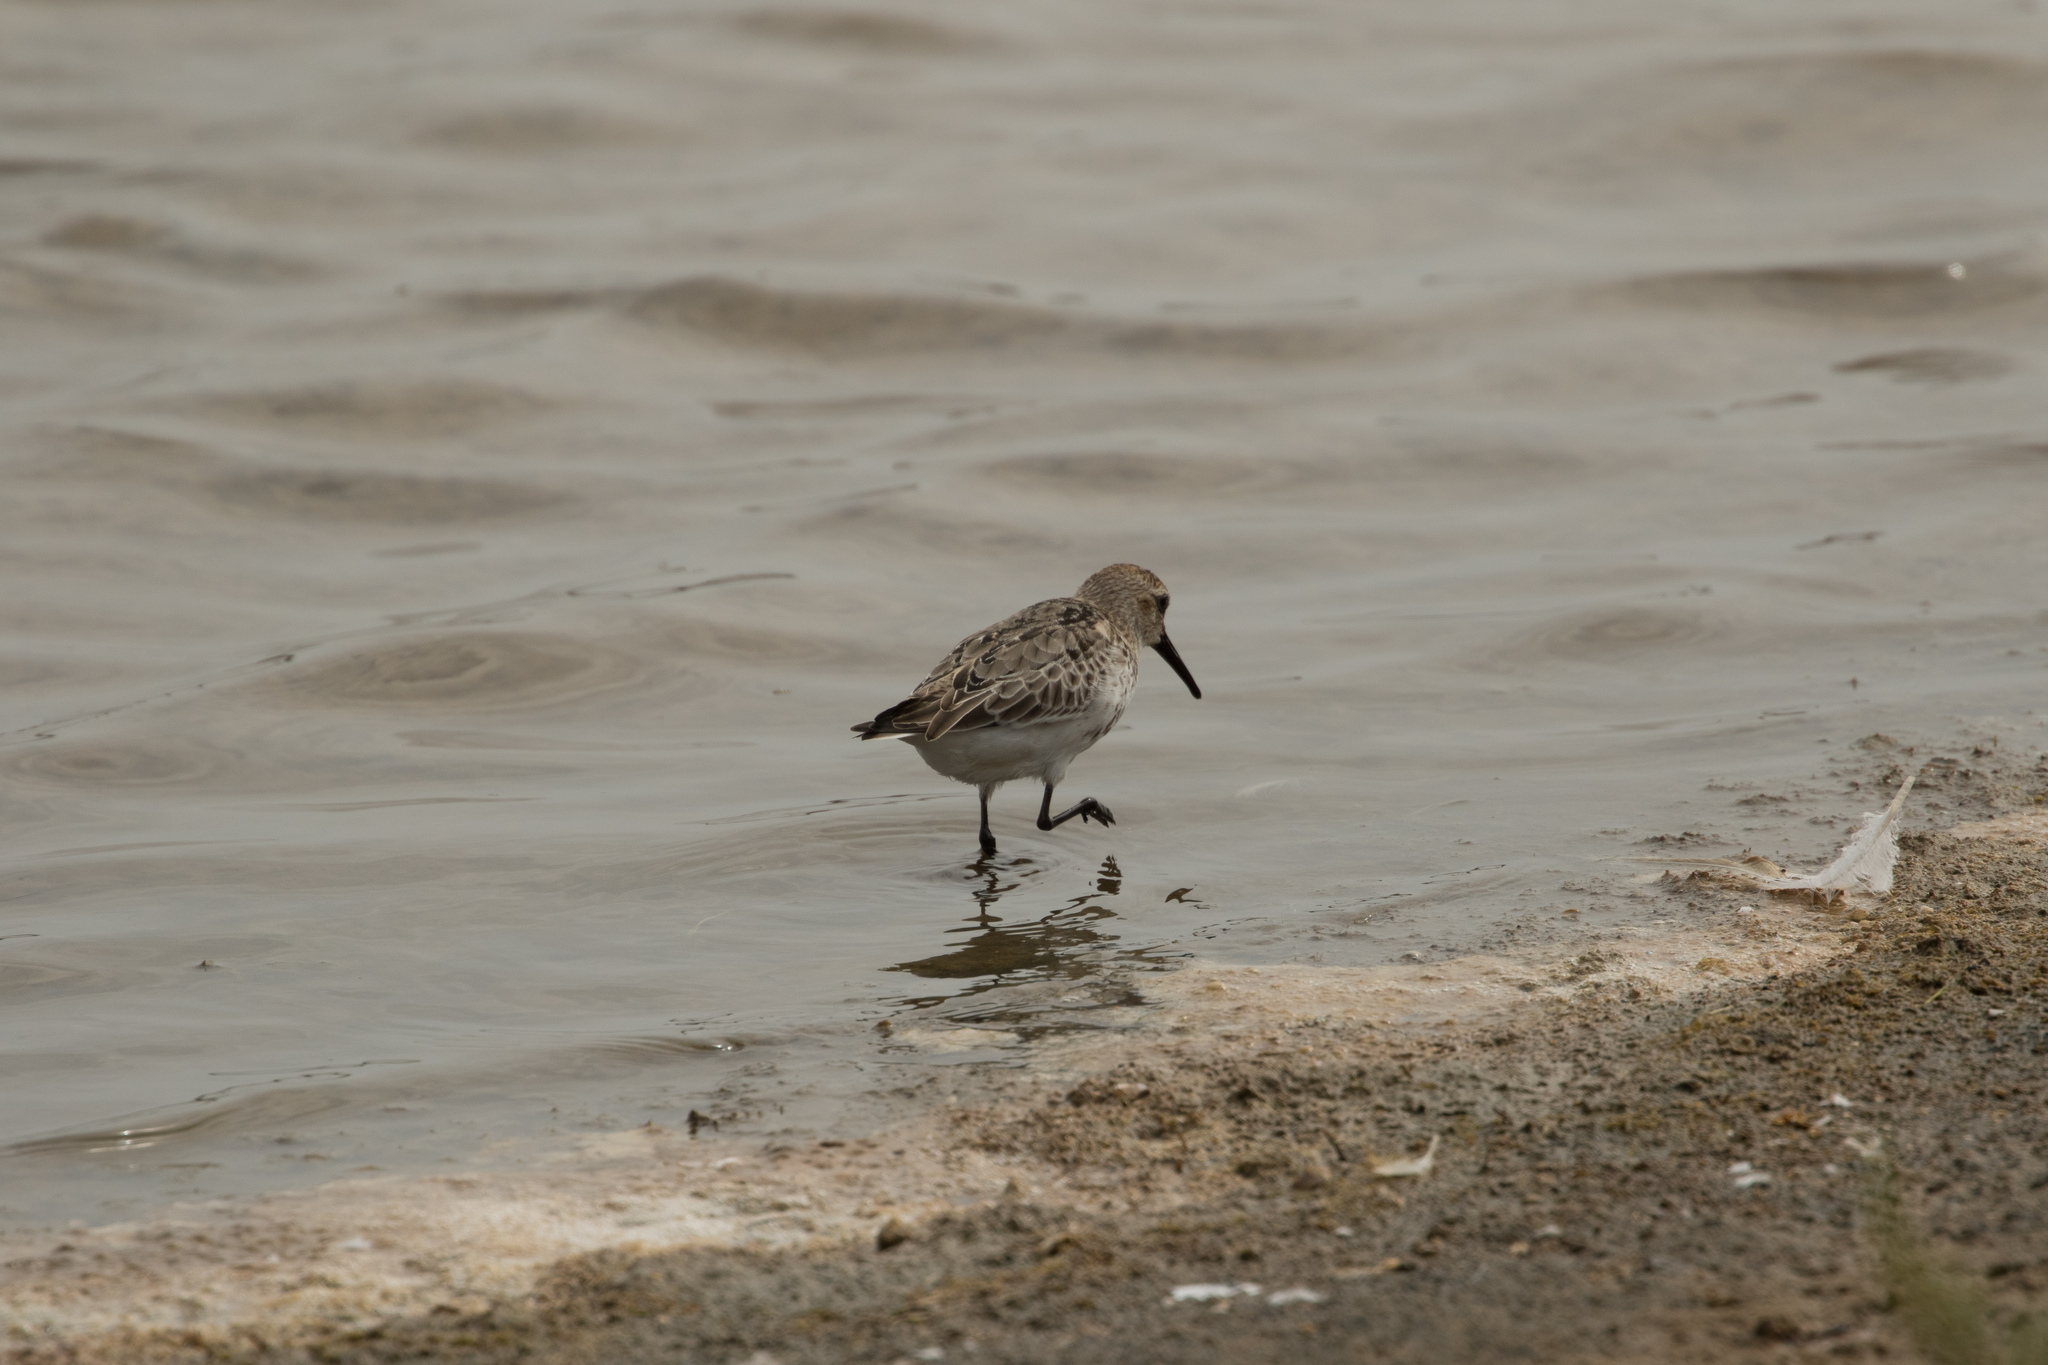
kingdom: Animalia
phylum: Chordata
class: Aves
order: Charadriiformes
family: Scolopacidae
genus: Calidris
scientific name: Calidris alpina
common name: Dunlin
